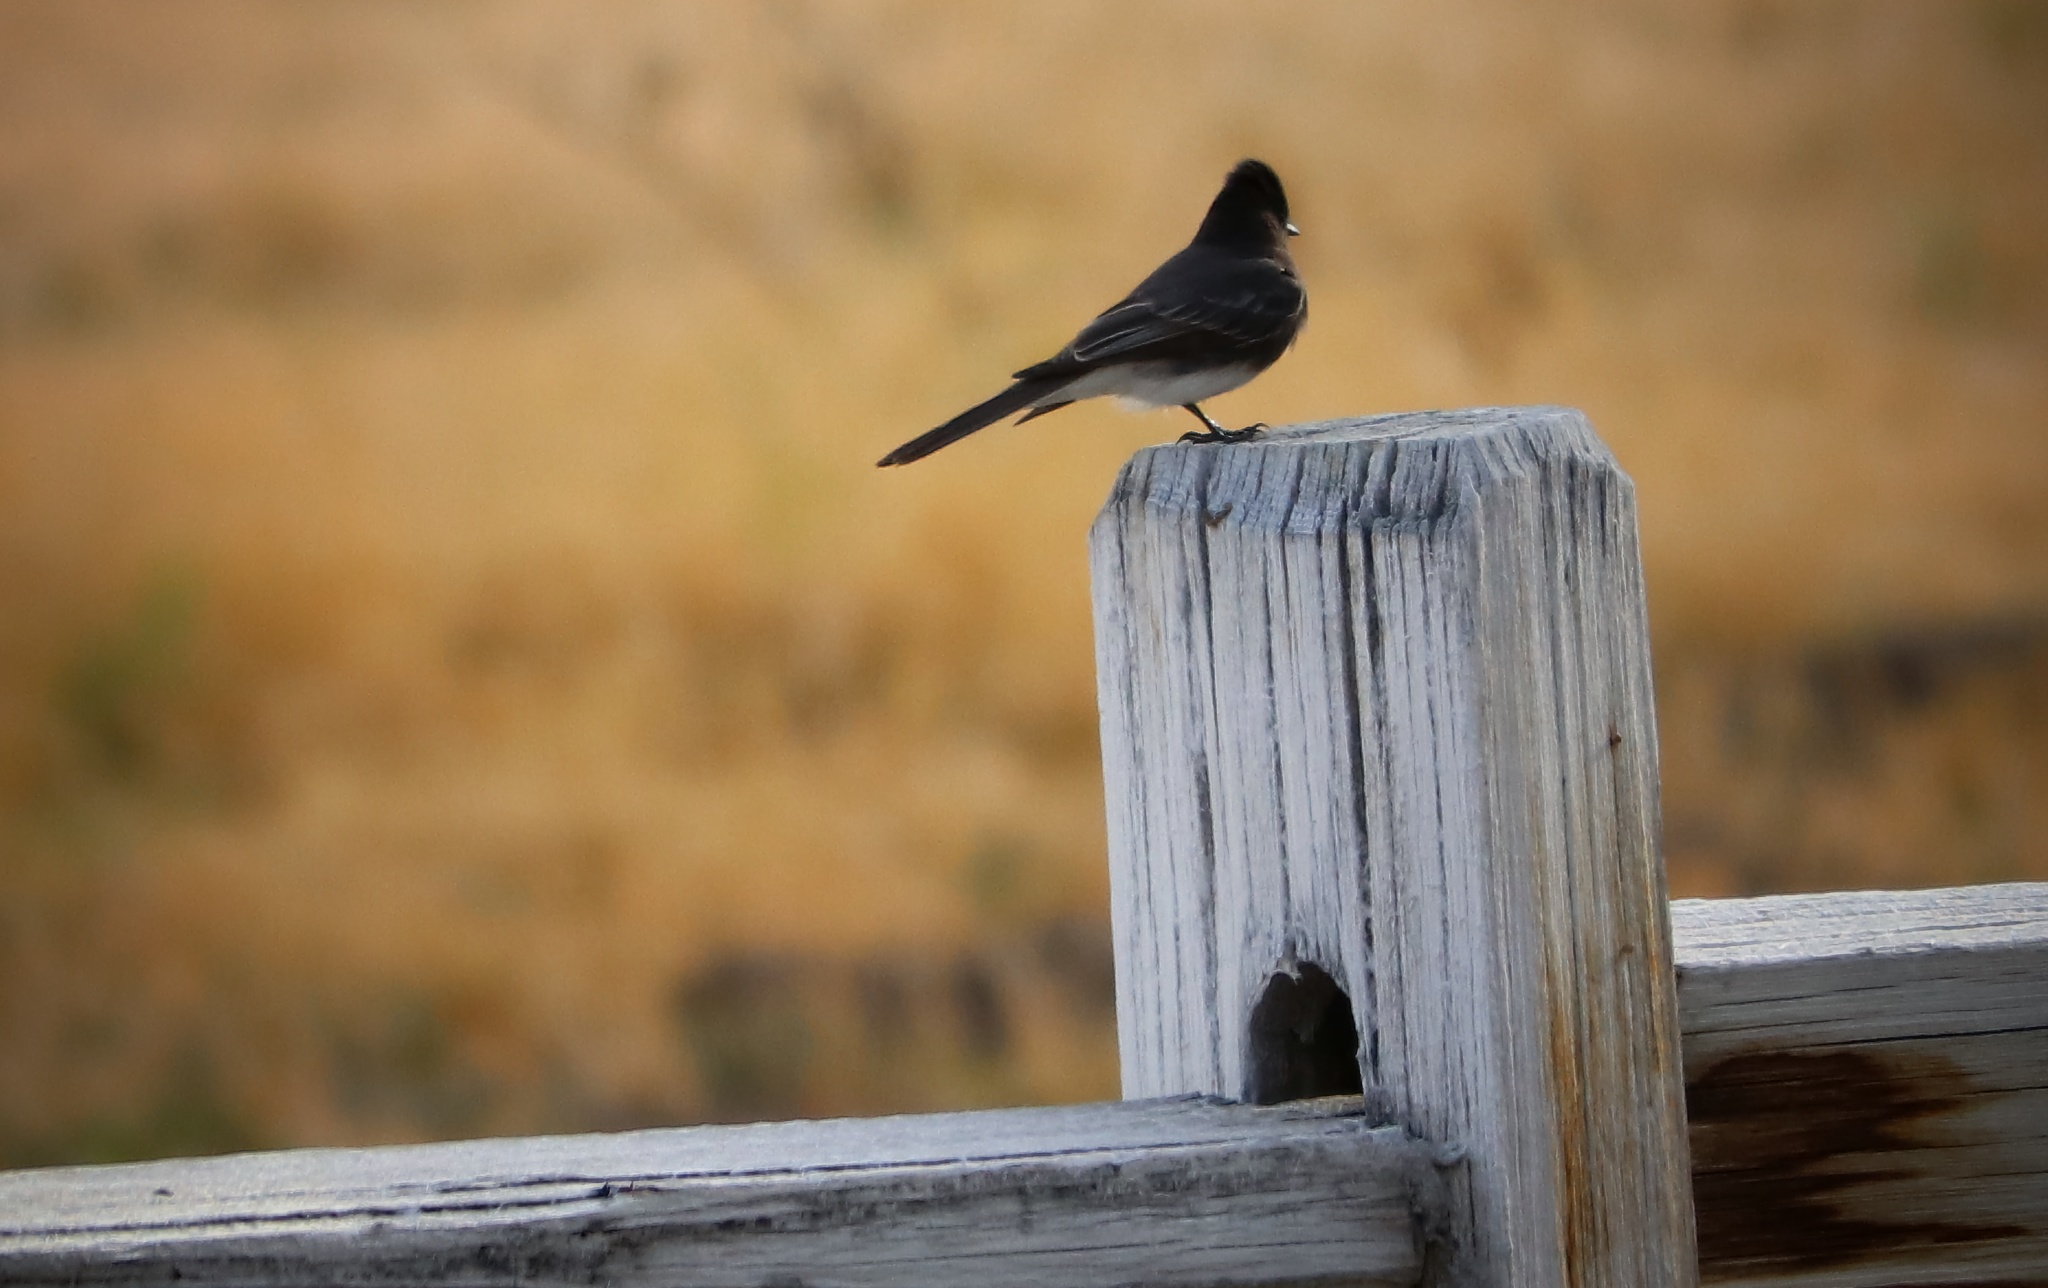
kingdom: Animalia
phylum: Chordata
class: Aves
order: Passeriformes
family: Tyrannidae
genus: Sayornis
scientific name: Sayornis nigricans
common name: Black phoebe
